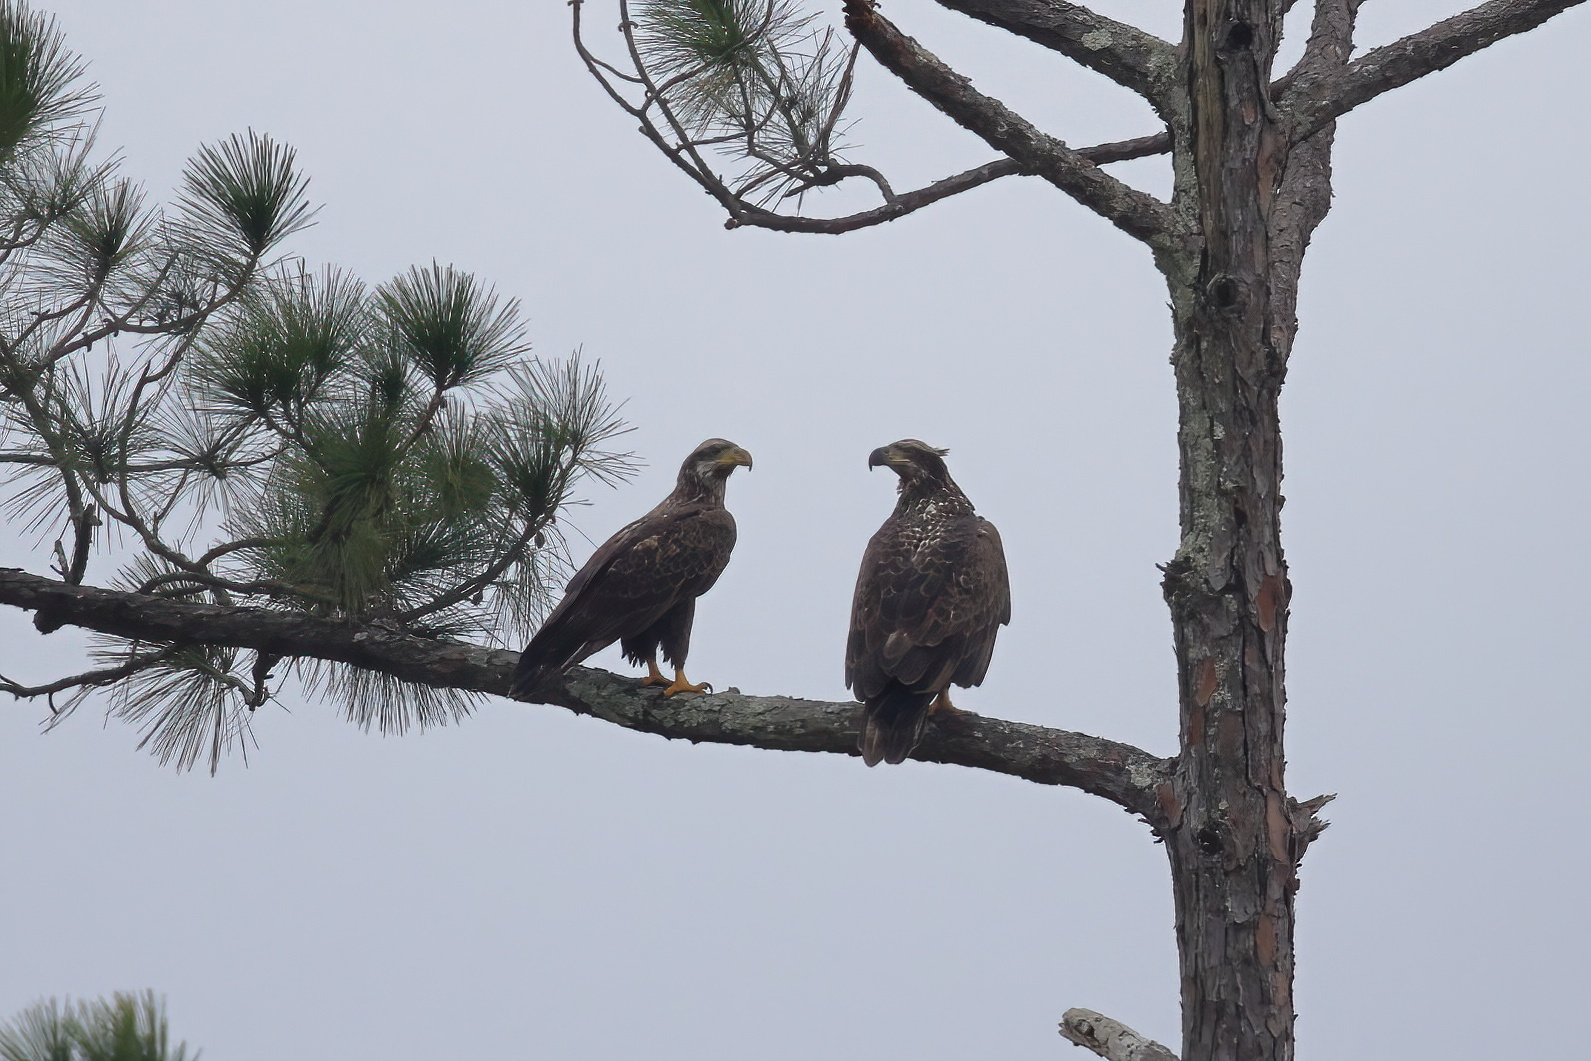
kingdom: Animalia
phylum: Chordata
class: Aves
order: Accipitriformes
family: Accipitridae
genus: Haliaeetus
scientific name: Haliaeetus leucocephalus
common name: Bald eagle
